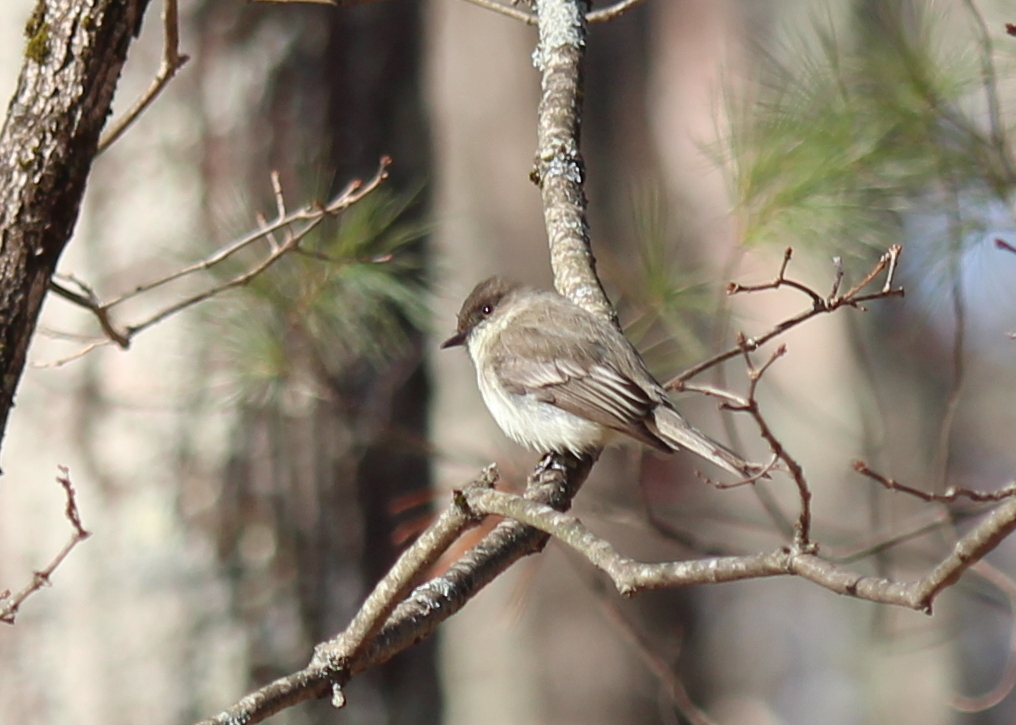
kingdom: Animalia
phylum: Chordata
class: Aves
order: Passeriformes
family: Tyrannidae
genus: Sayornis
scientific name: Sayornis phoebe
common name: Eastern phoebe
